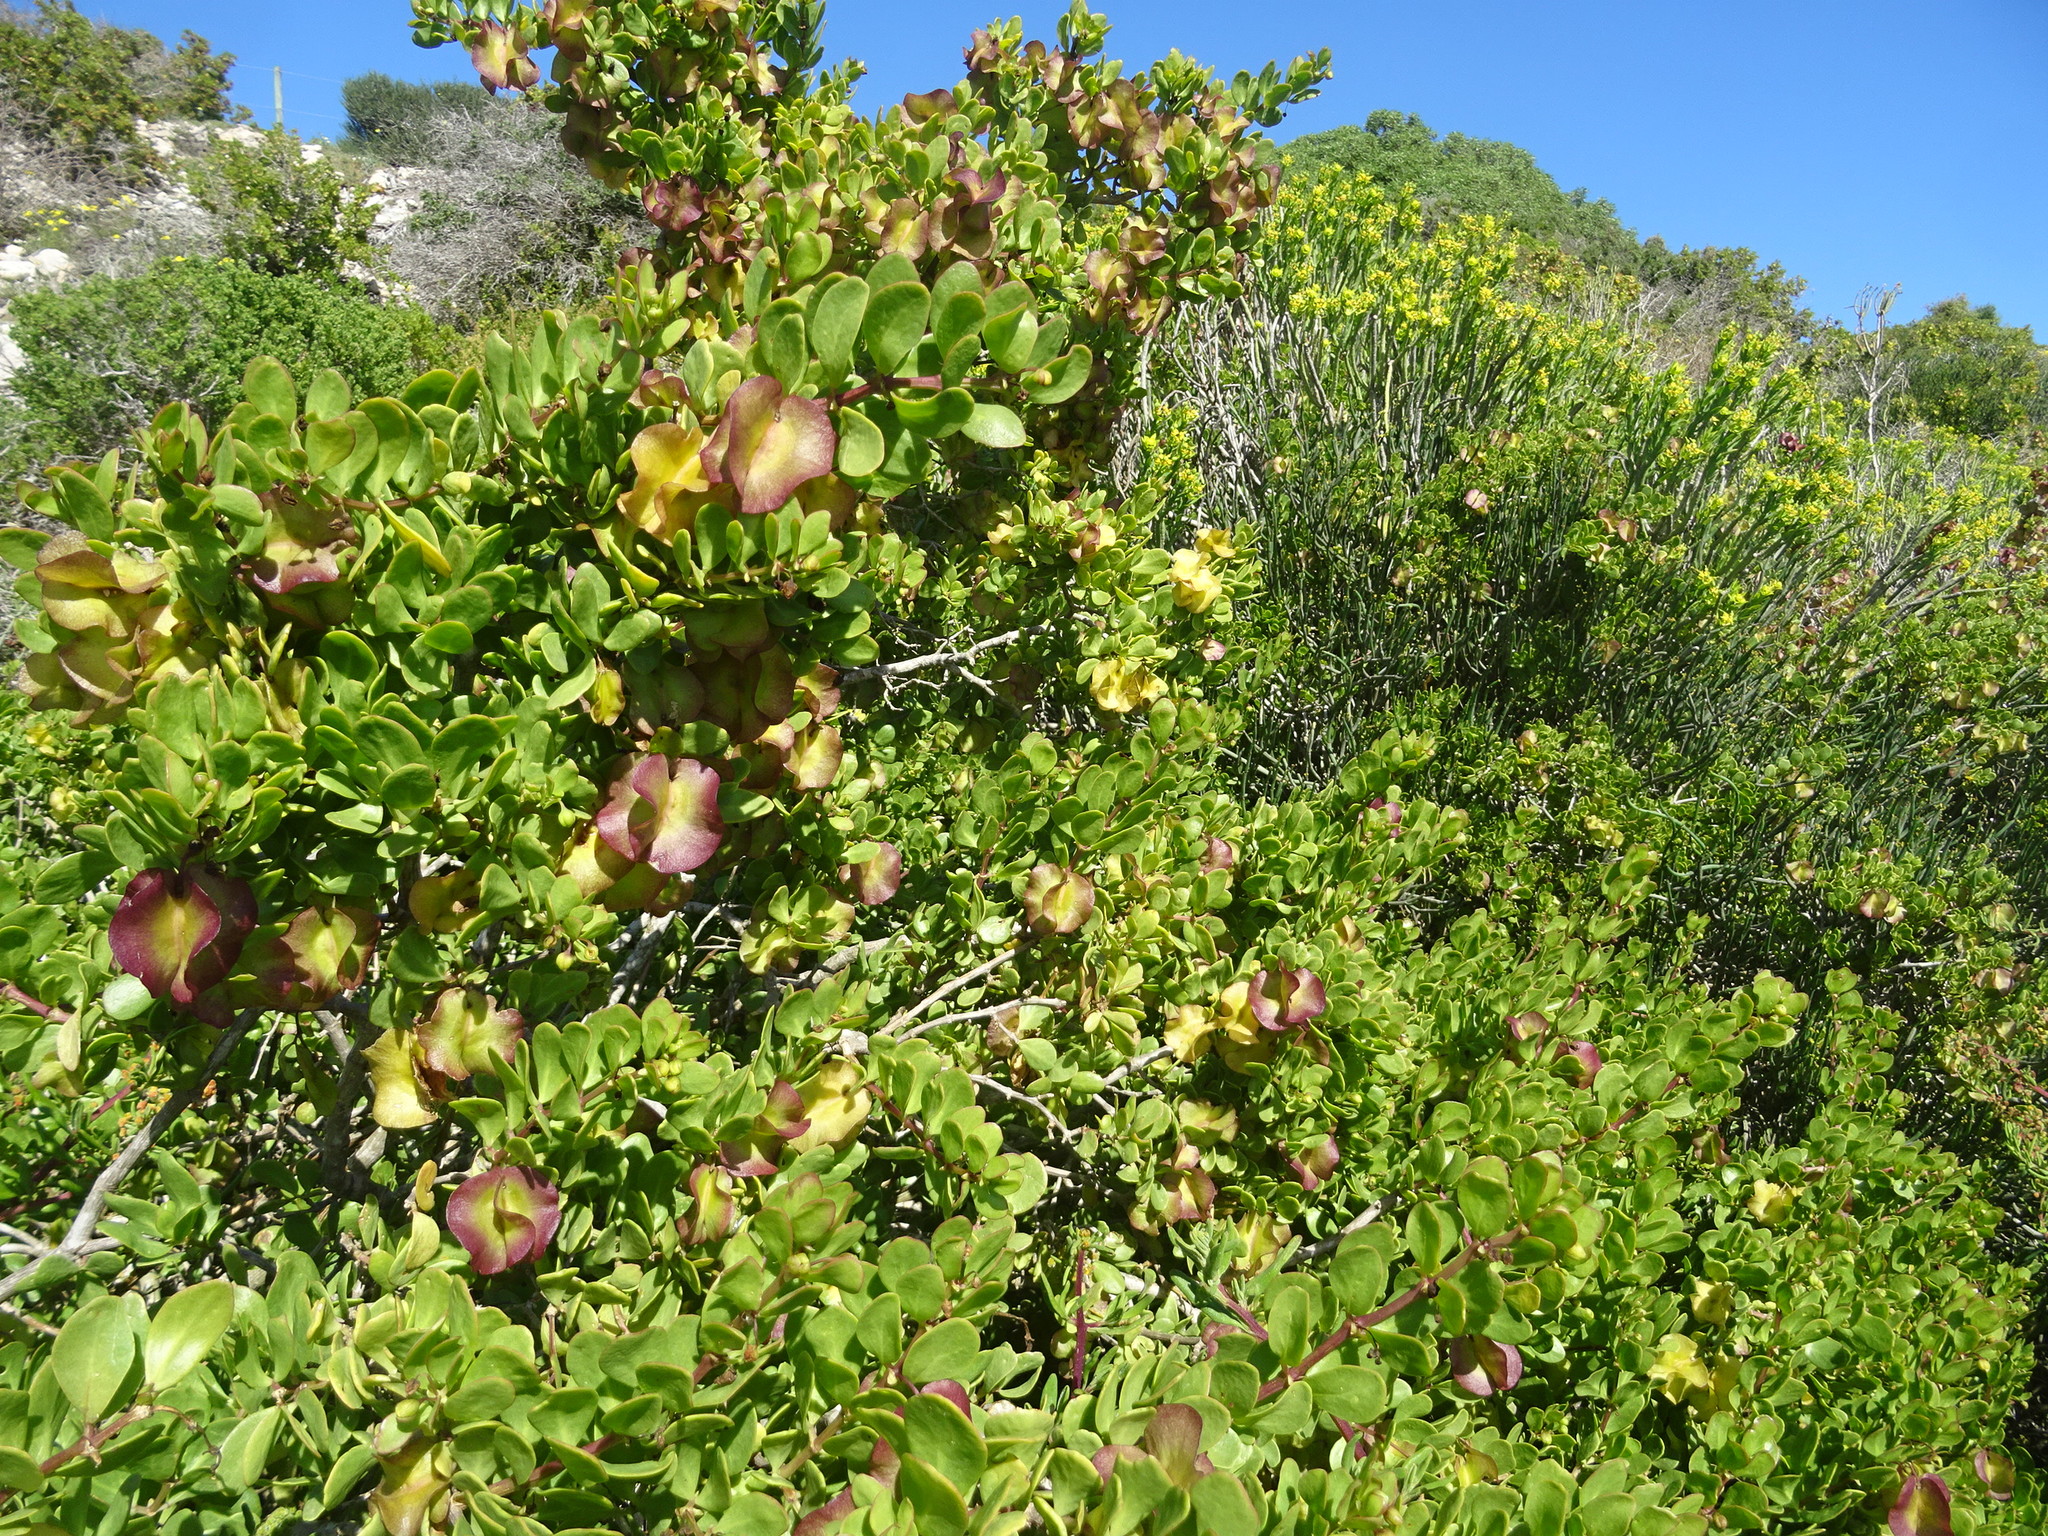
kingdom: Plantae
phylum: Tracheophyta
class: Magnoliopsida
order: Zygophyllales
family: Zygophyllaceae
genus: Roepera
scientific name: Roepera morgsana
